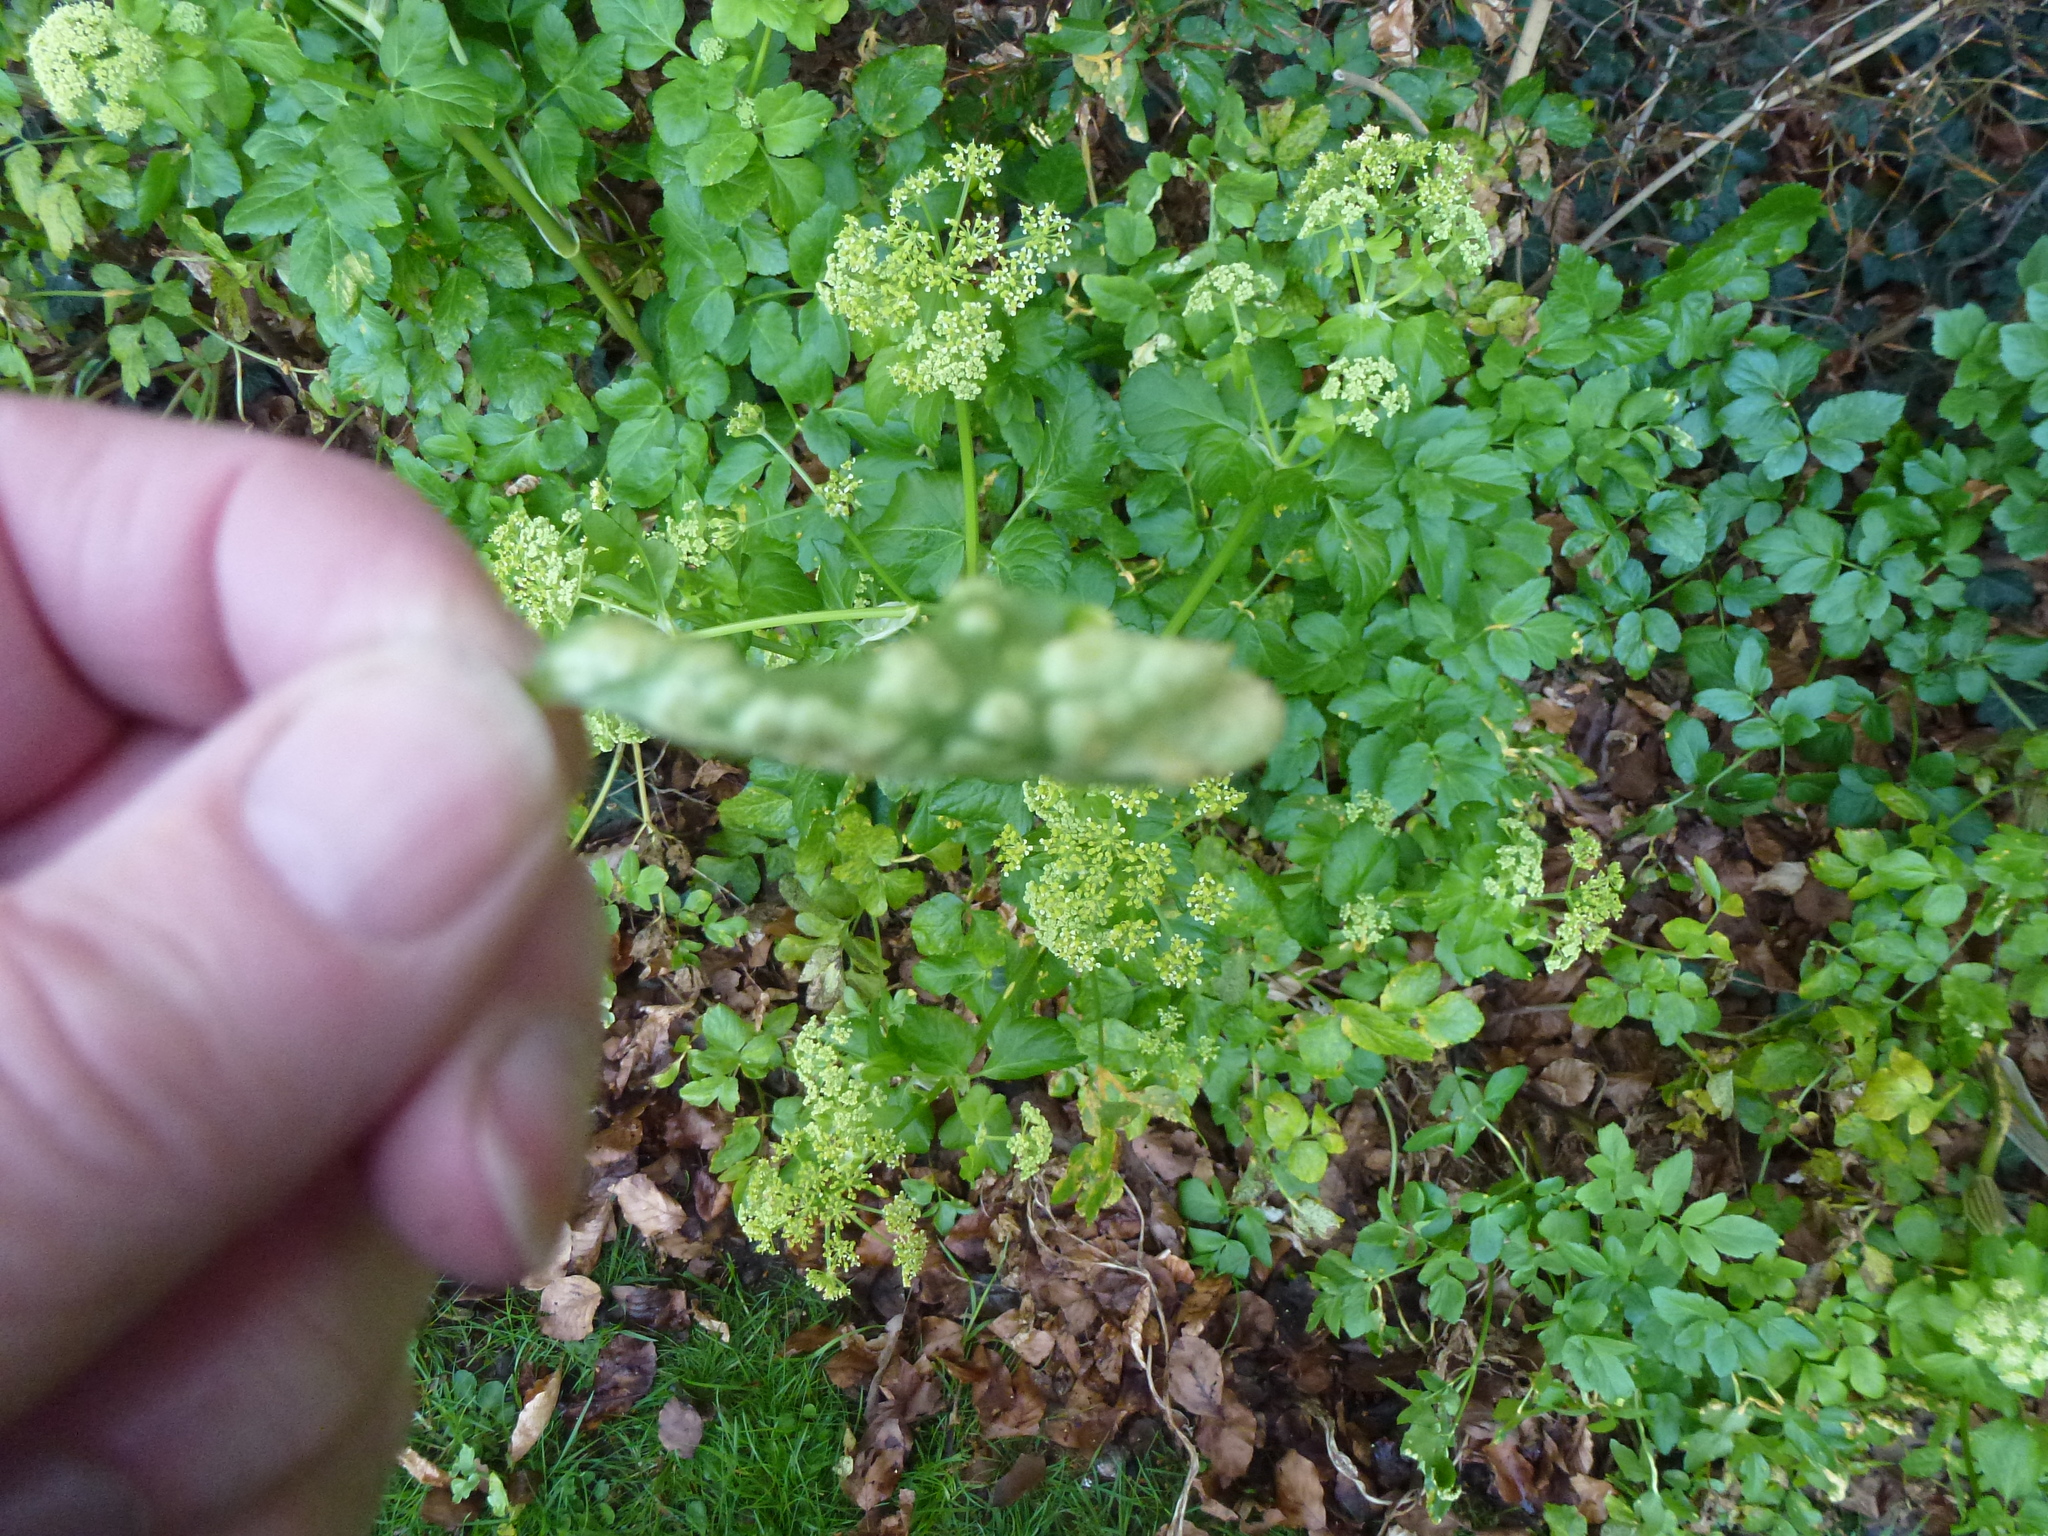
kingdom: Fungi
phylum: Basidiomycota
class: Pucciniomycetes
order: Pucciniales
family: Pucciniaceae
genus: Puccinia
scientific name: Puccinia smyrnii
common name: Alexanders rust
